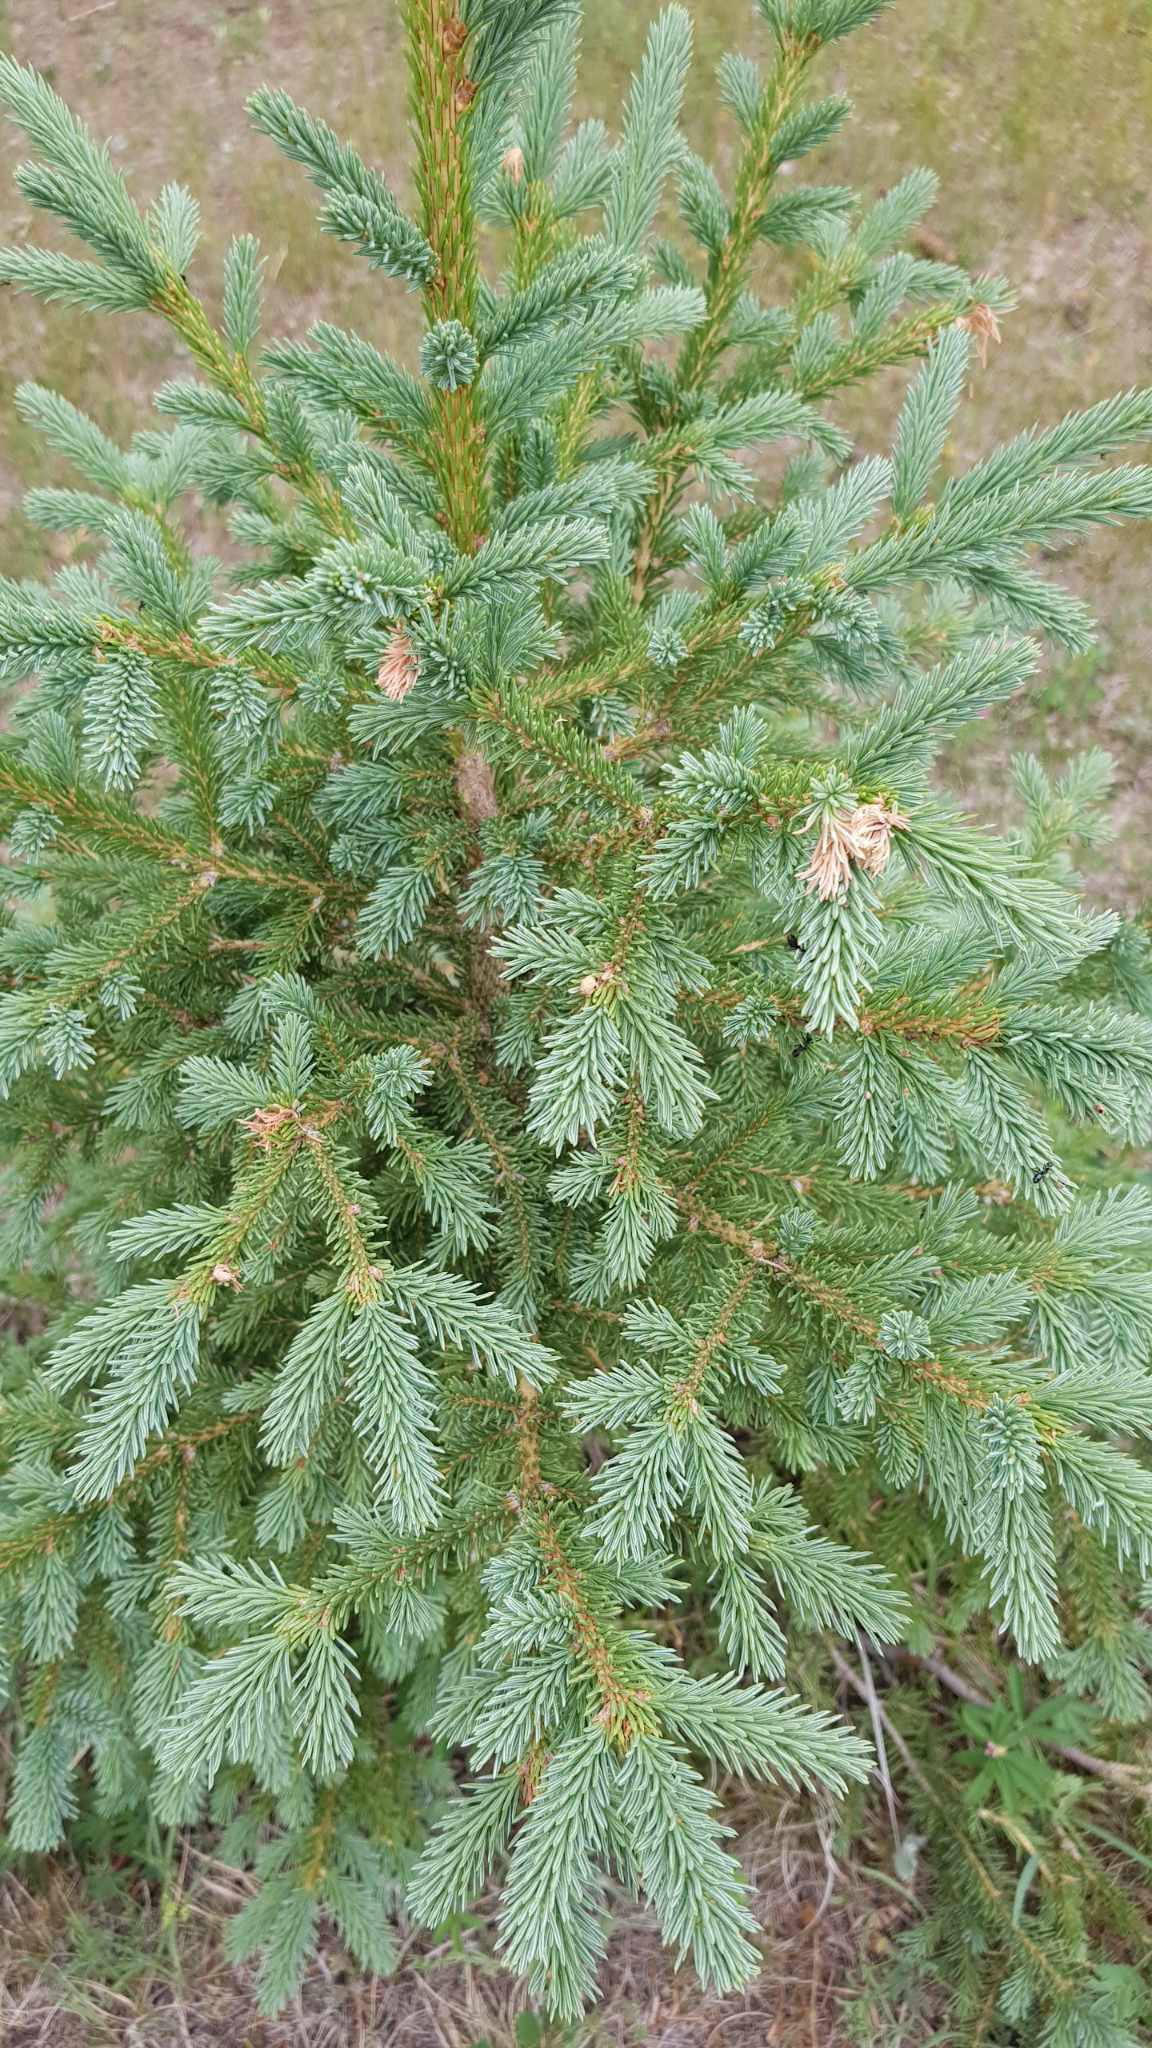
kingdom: Plantae
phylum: Tracheophyta
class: Pinopsida
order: Pinales
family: Pinaceae
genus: Picea
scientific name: Picea obovata
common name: Siberian spruce
